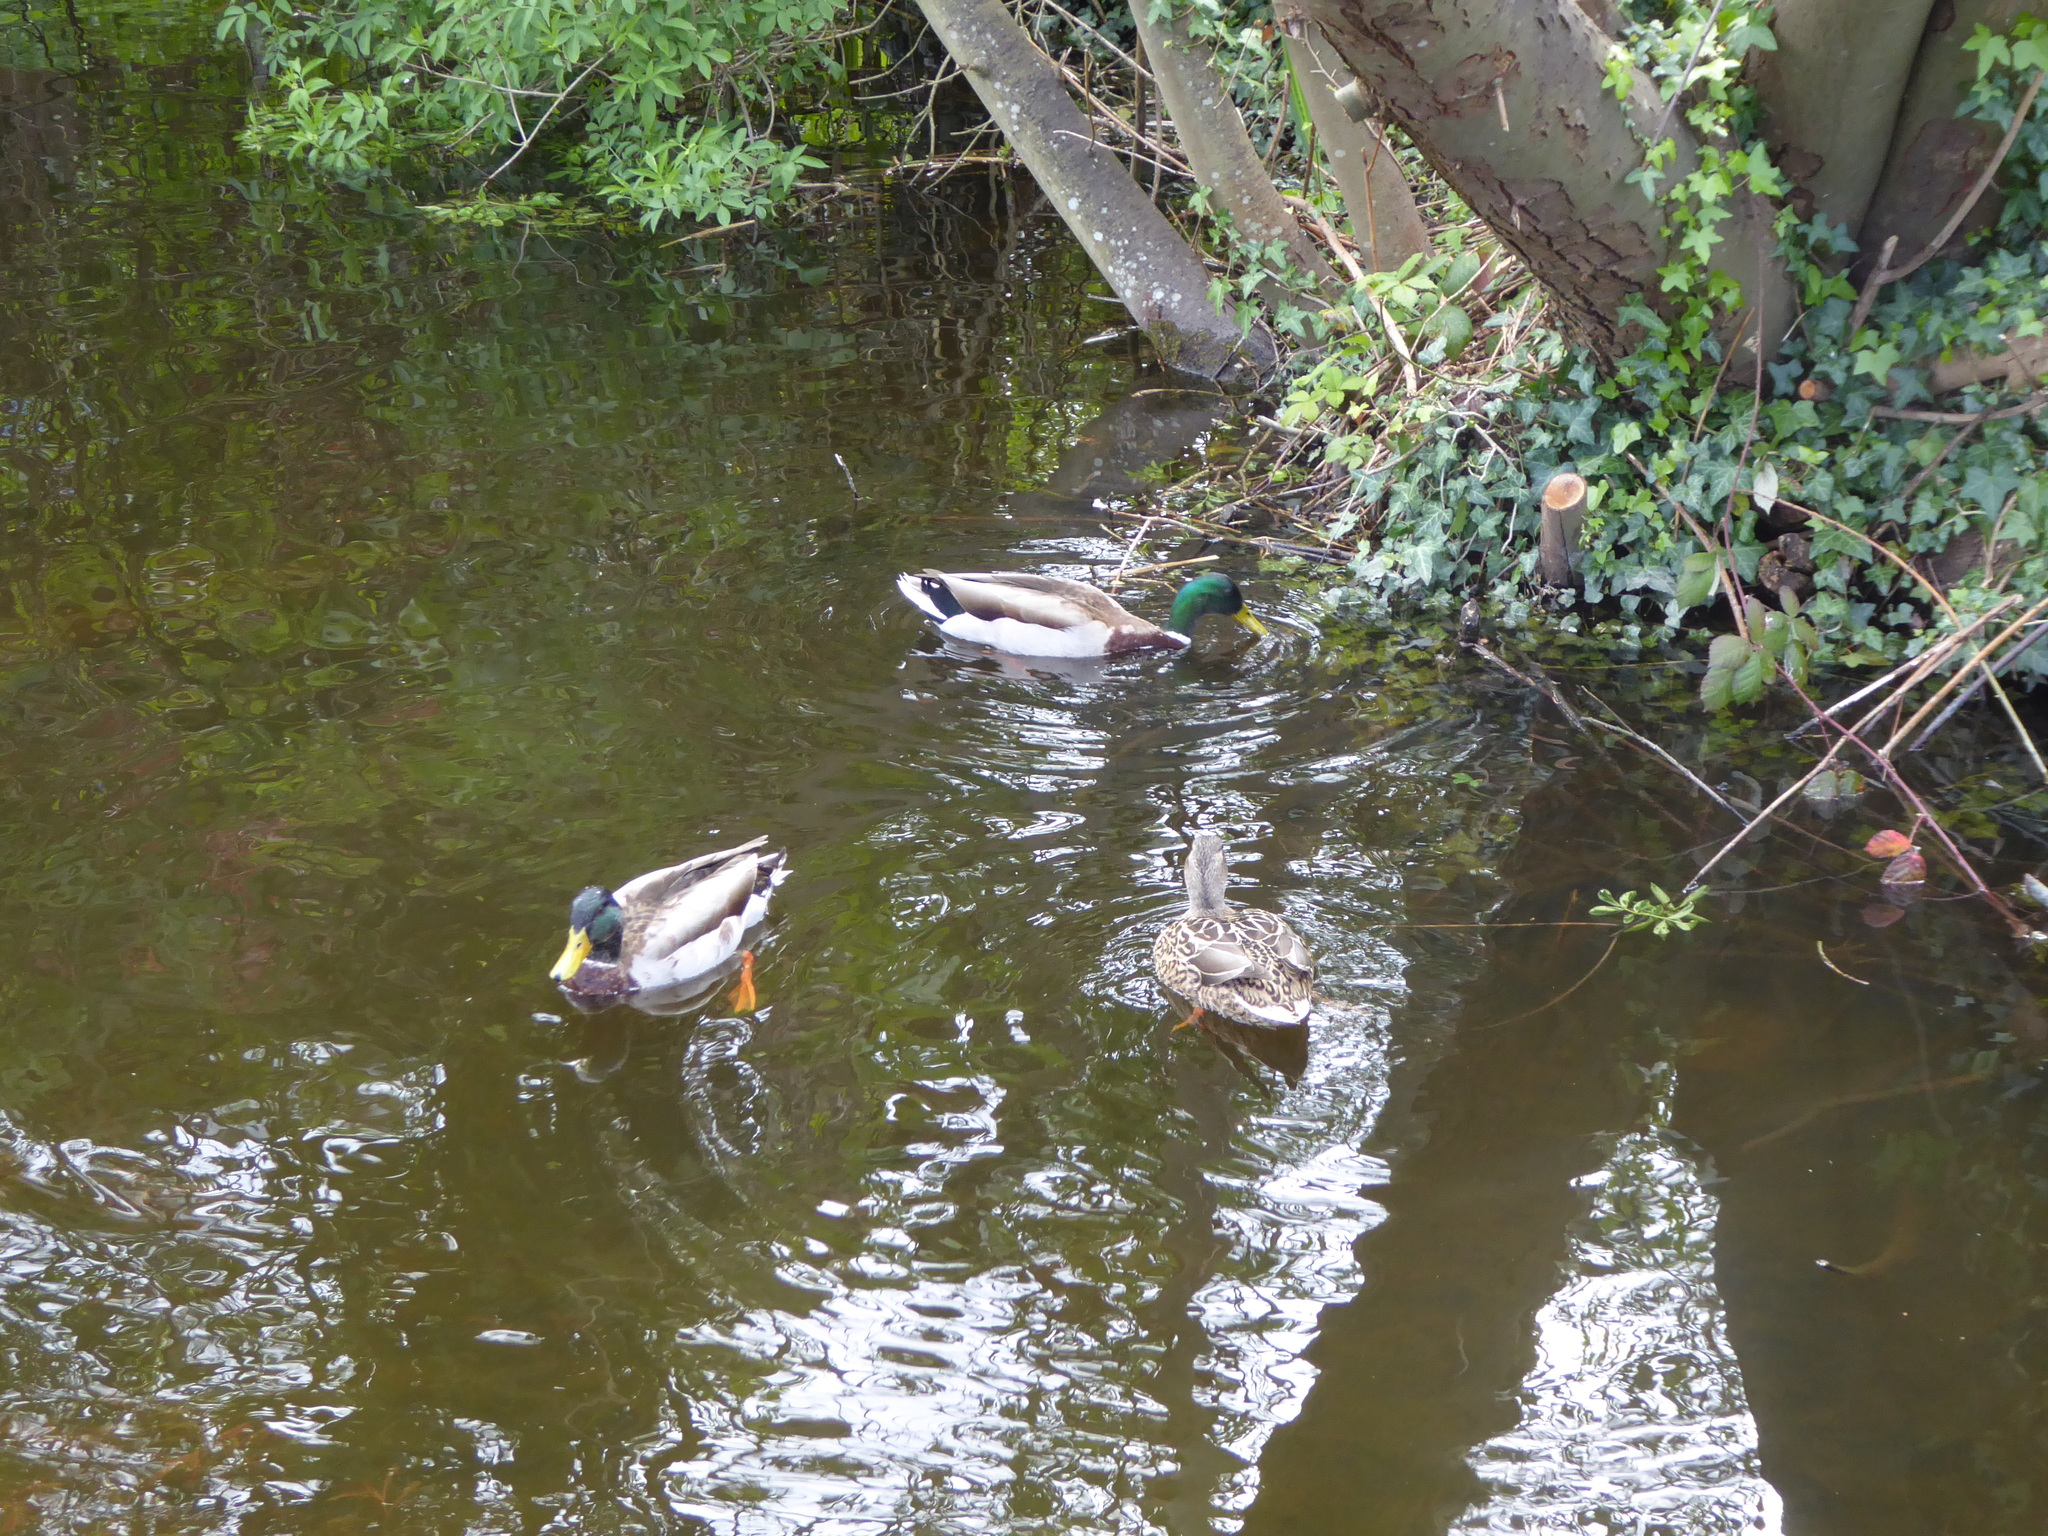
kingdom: Animalia
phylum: Chordata
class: Aves
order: Anseriformes
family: Anatidae
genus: Anas
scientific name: Anas platyrhynchos
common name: Mallard
